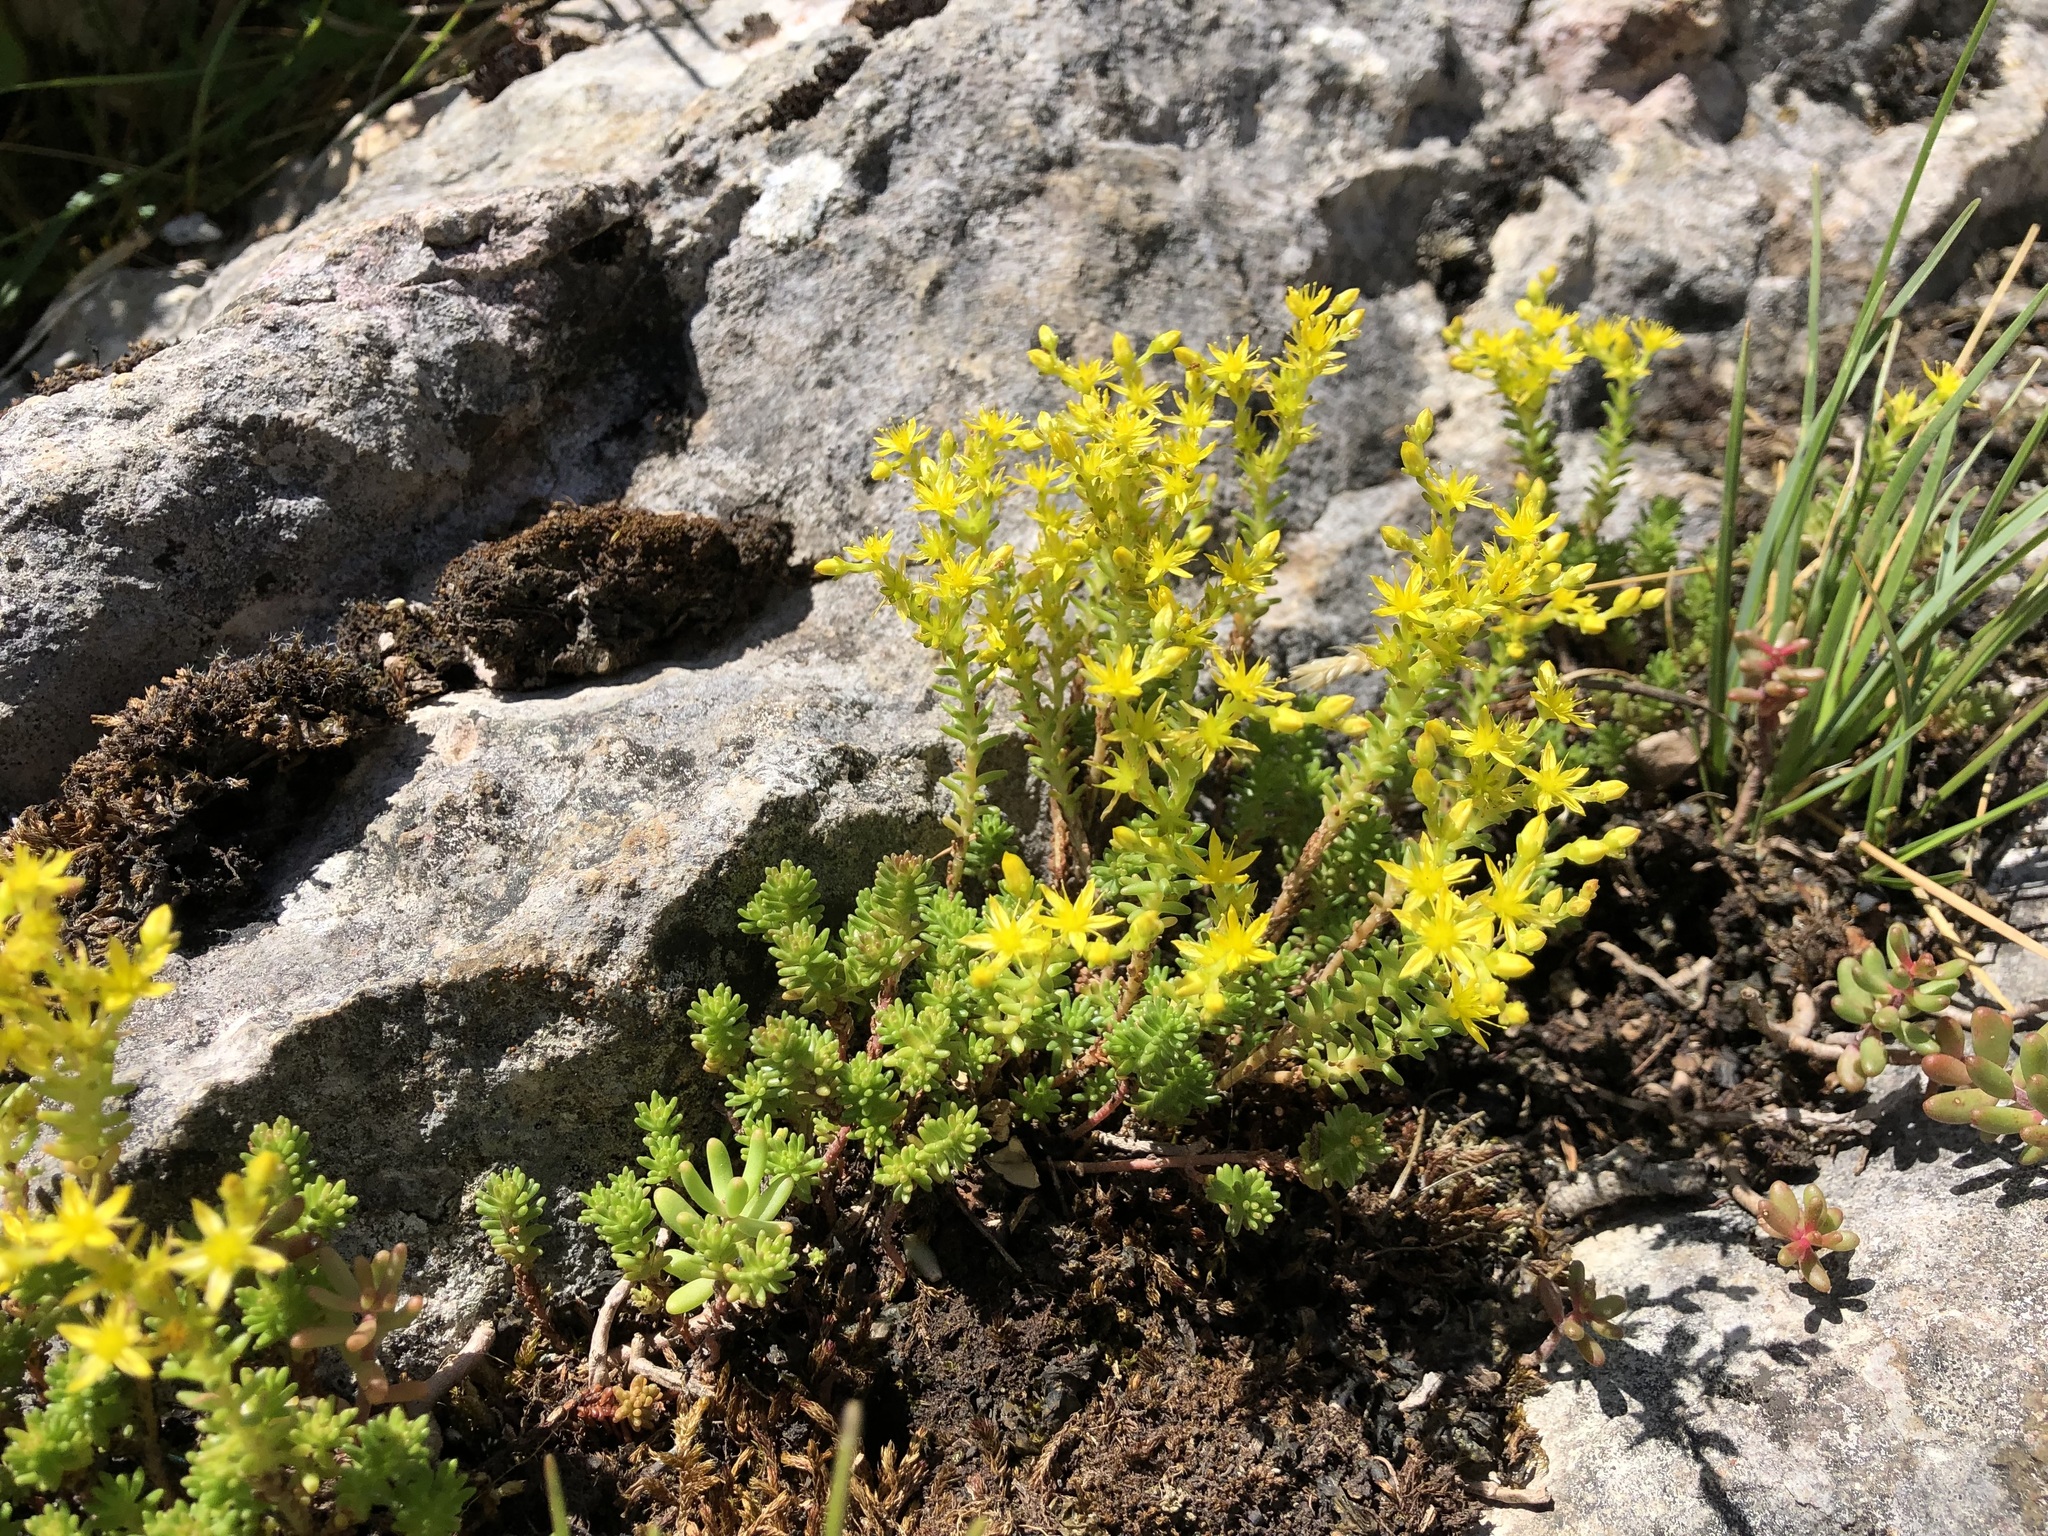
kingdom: Plantae
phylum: Tracheophyta
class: Magnoliopsida
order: Saxifragales
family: Crassulaceae
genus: Sedum
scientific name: Sedum sexangulare
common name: Tasteless stonecrop
